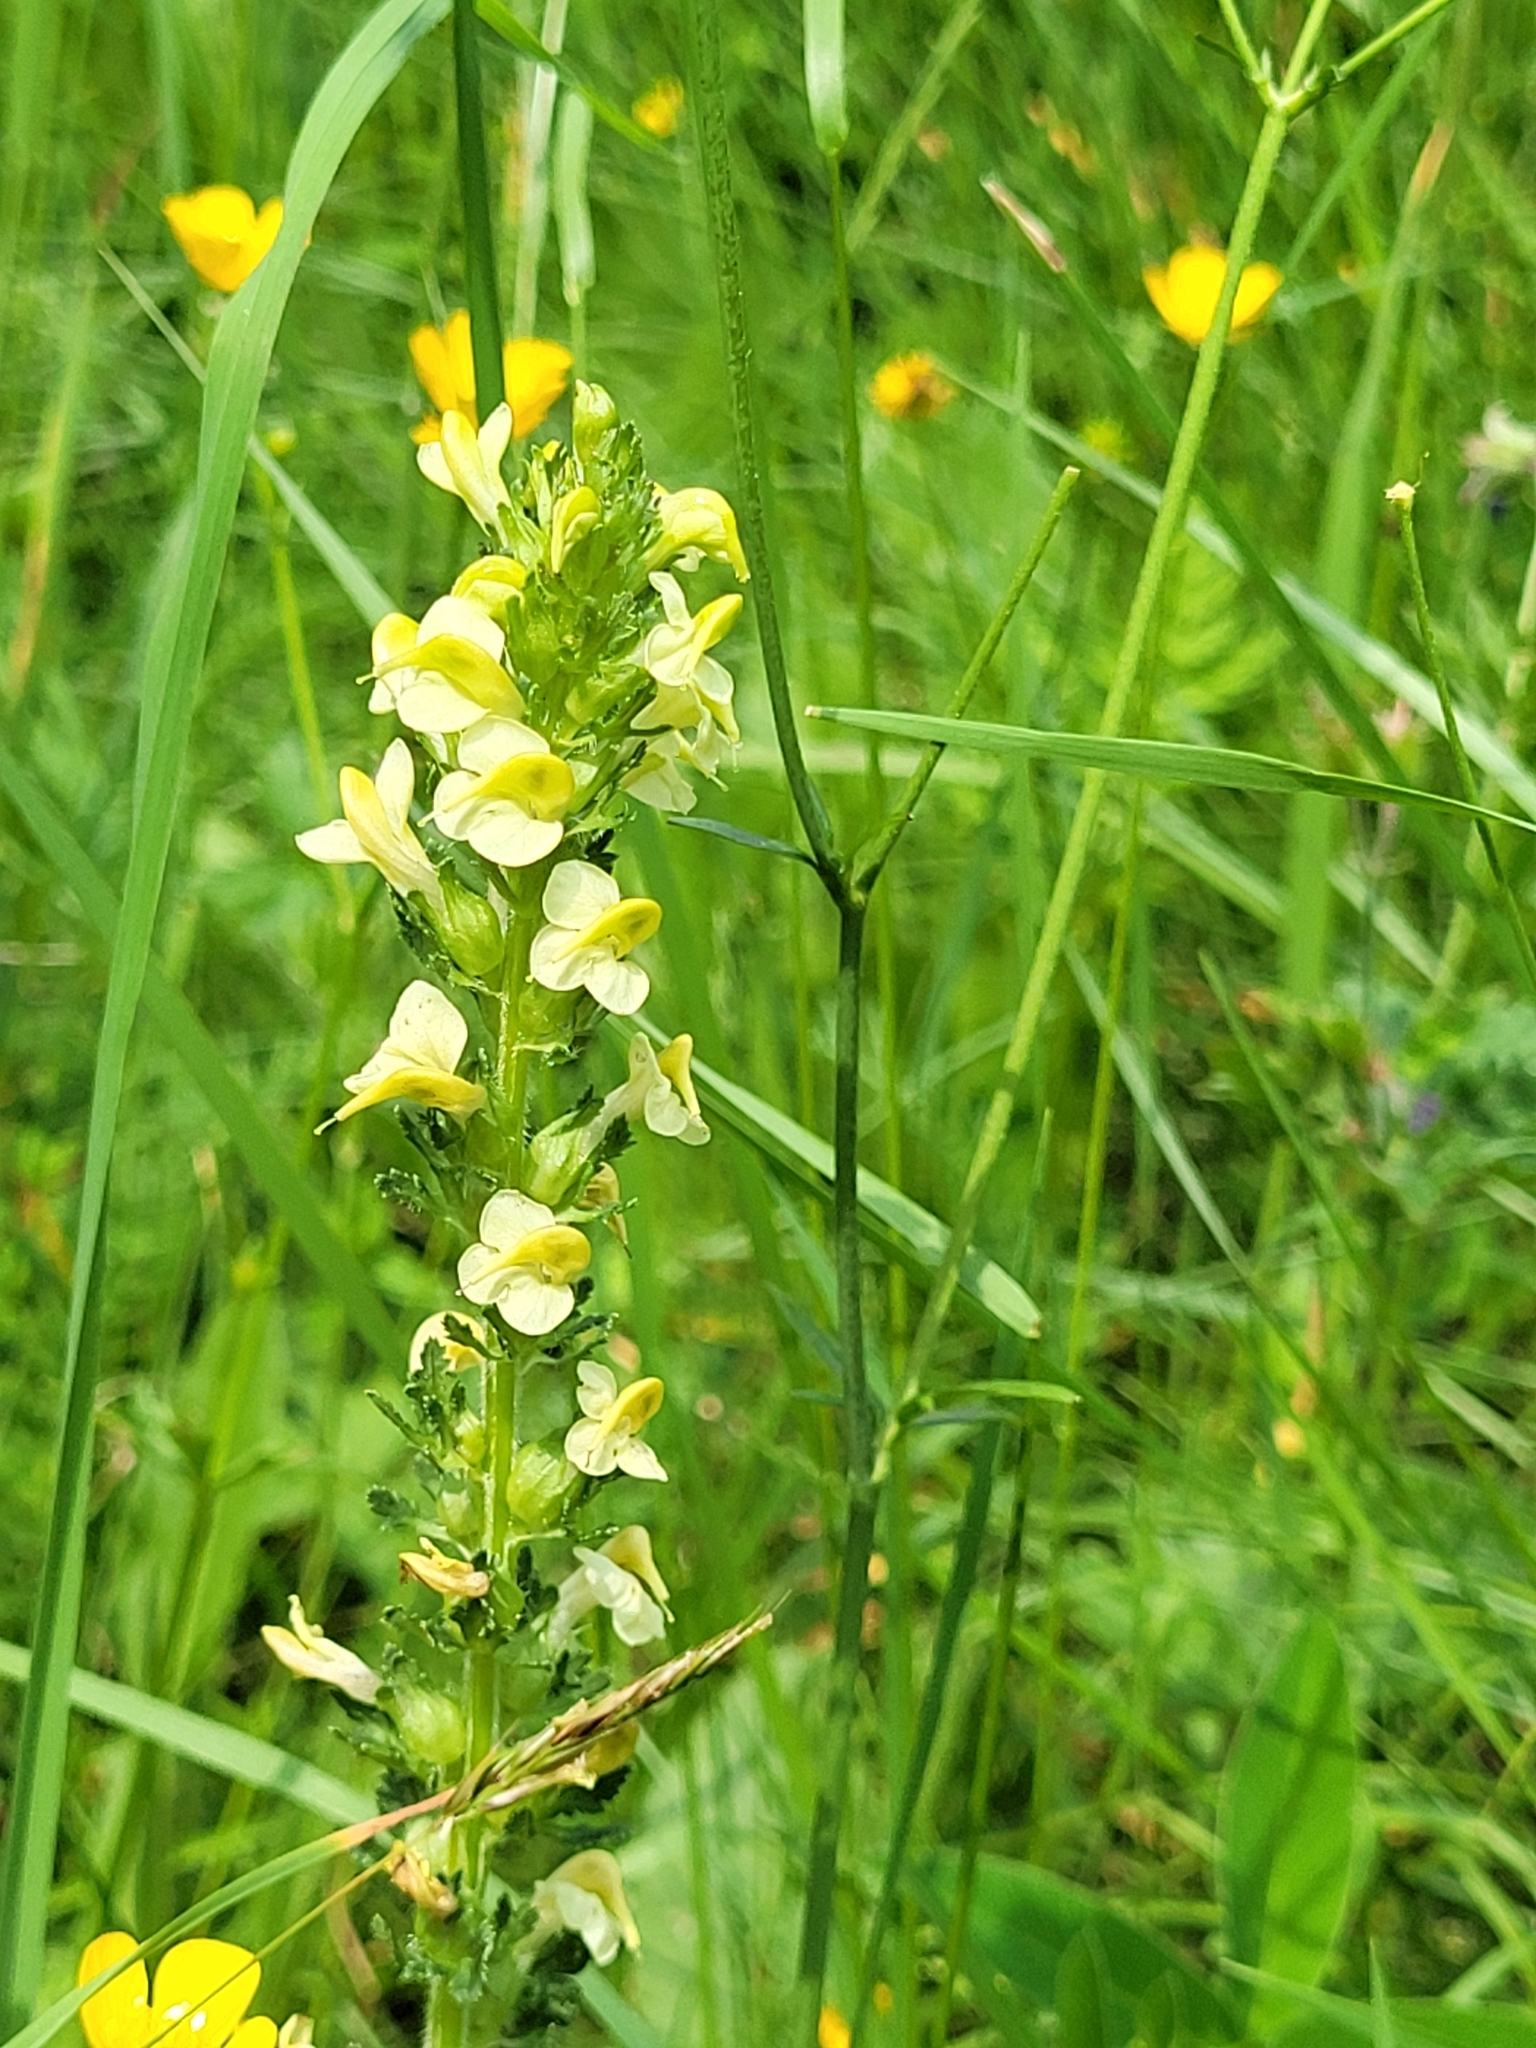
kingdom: Plantae
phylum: Tracheophyta
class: Magnoliopsida
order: Lamiales
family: Orobanchaceae
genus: Pedicularis
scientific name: Pedicularis elongata
